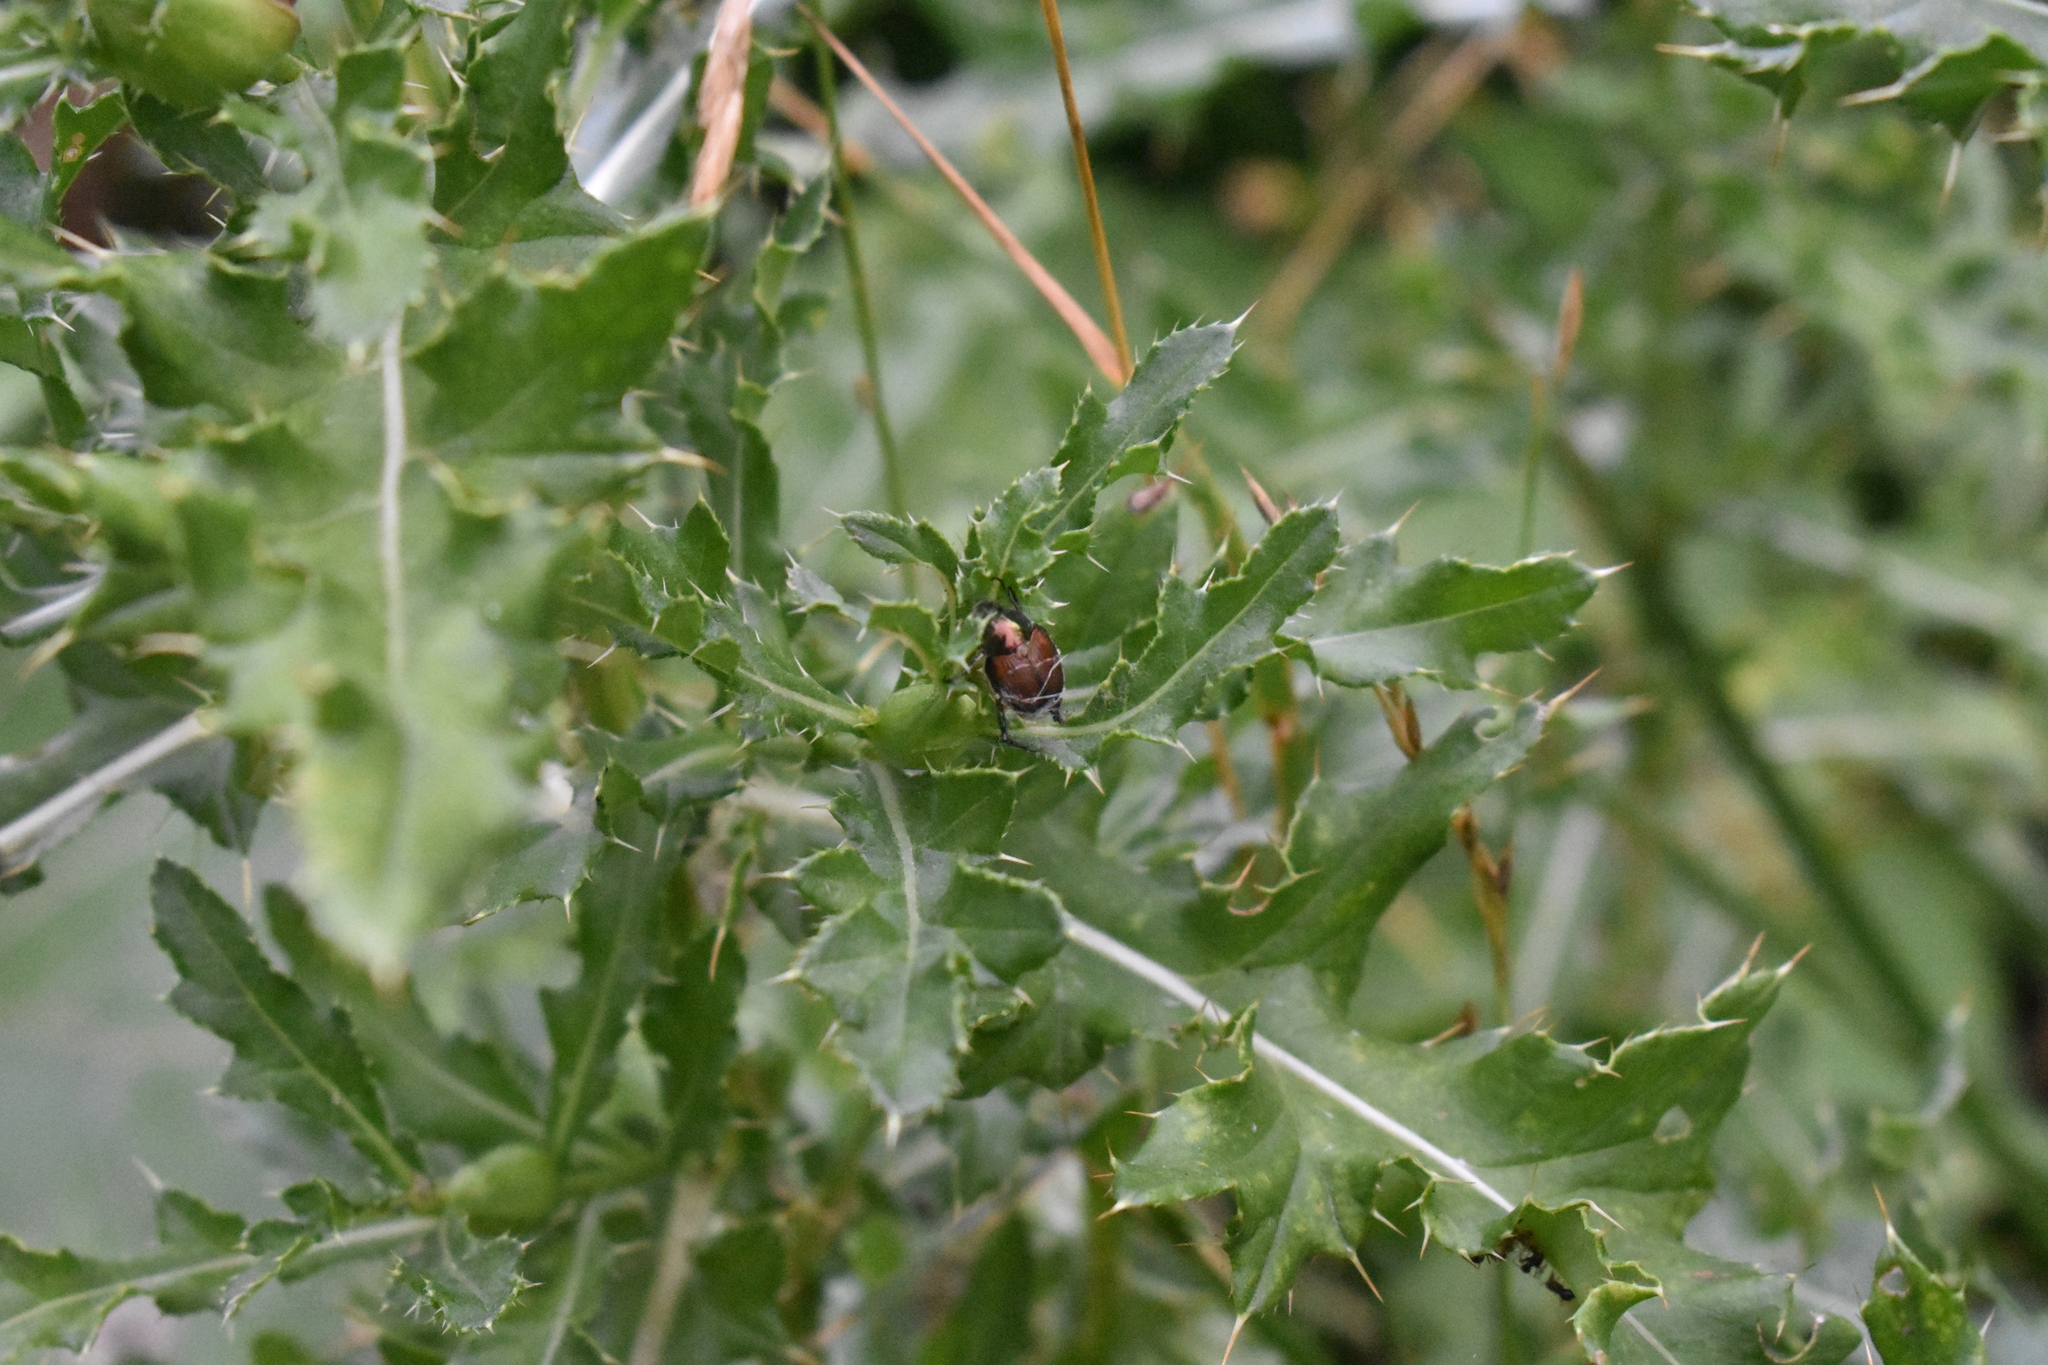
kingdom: Animalia
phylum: Arthropoda
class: Insecta
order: Coleoptera
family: Scarabaeidae
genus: Popillia
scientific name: Popillia japonica
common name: Japanese beetle
